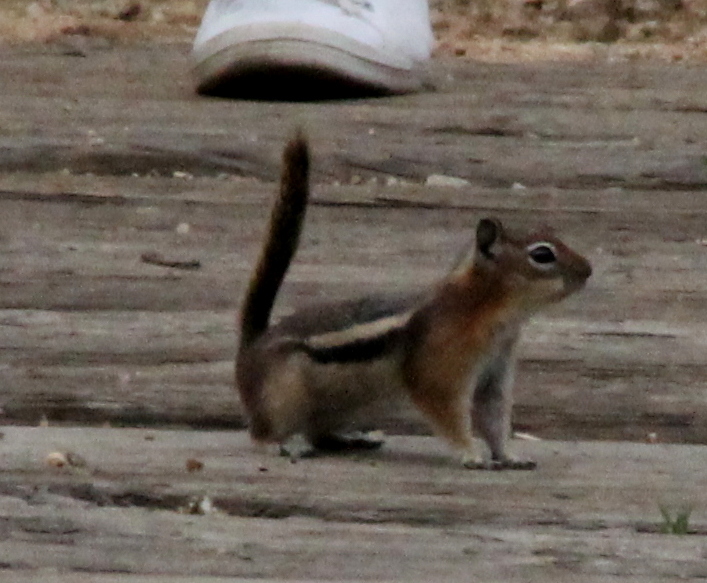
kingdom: Animalia
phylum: Chordata
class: Mammalia
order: Rodentia
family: Sciuridae
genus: Callospermophilus
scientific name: Callospermophilus lateralis
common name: Golden-mantled ground squirrel
